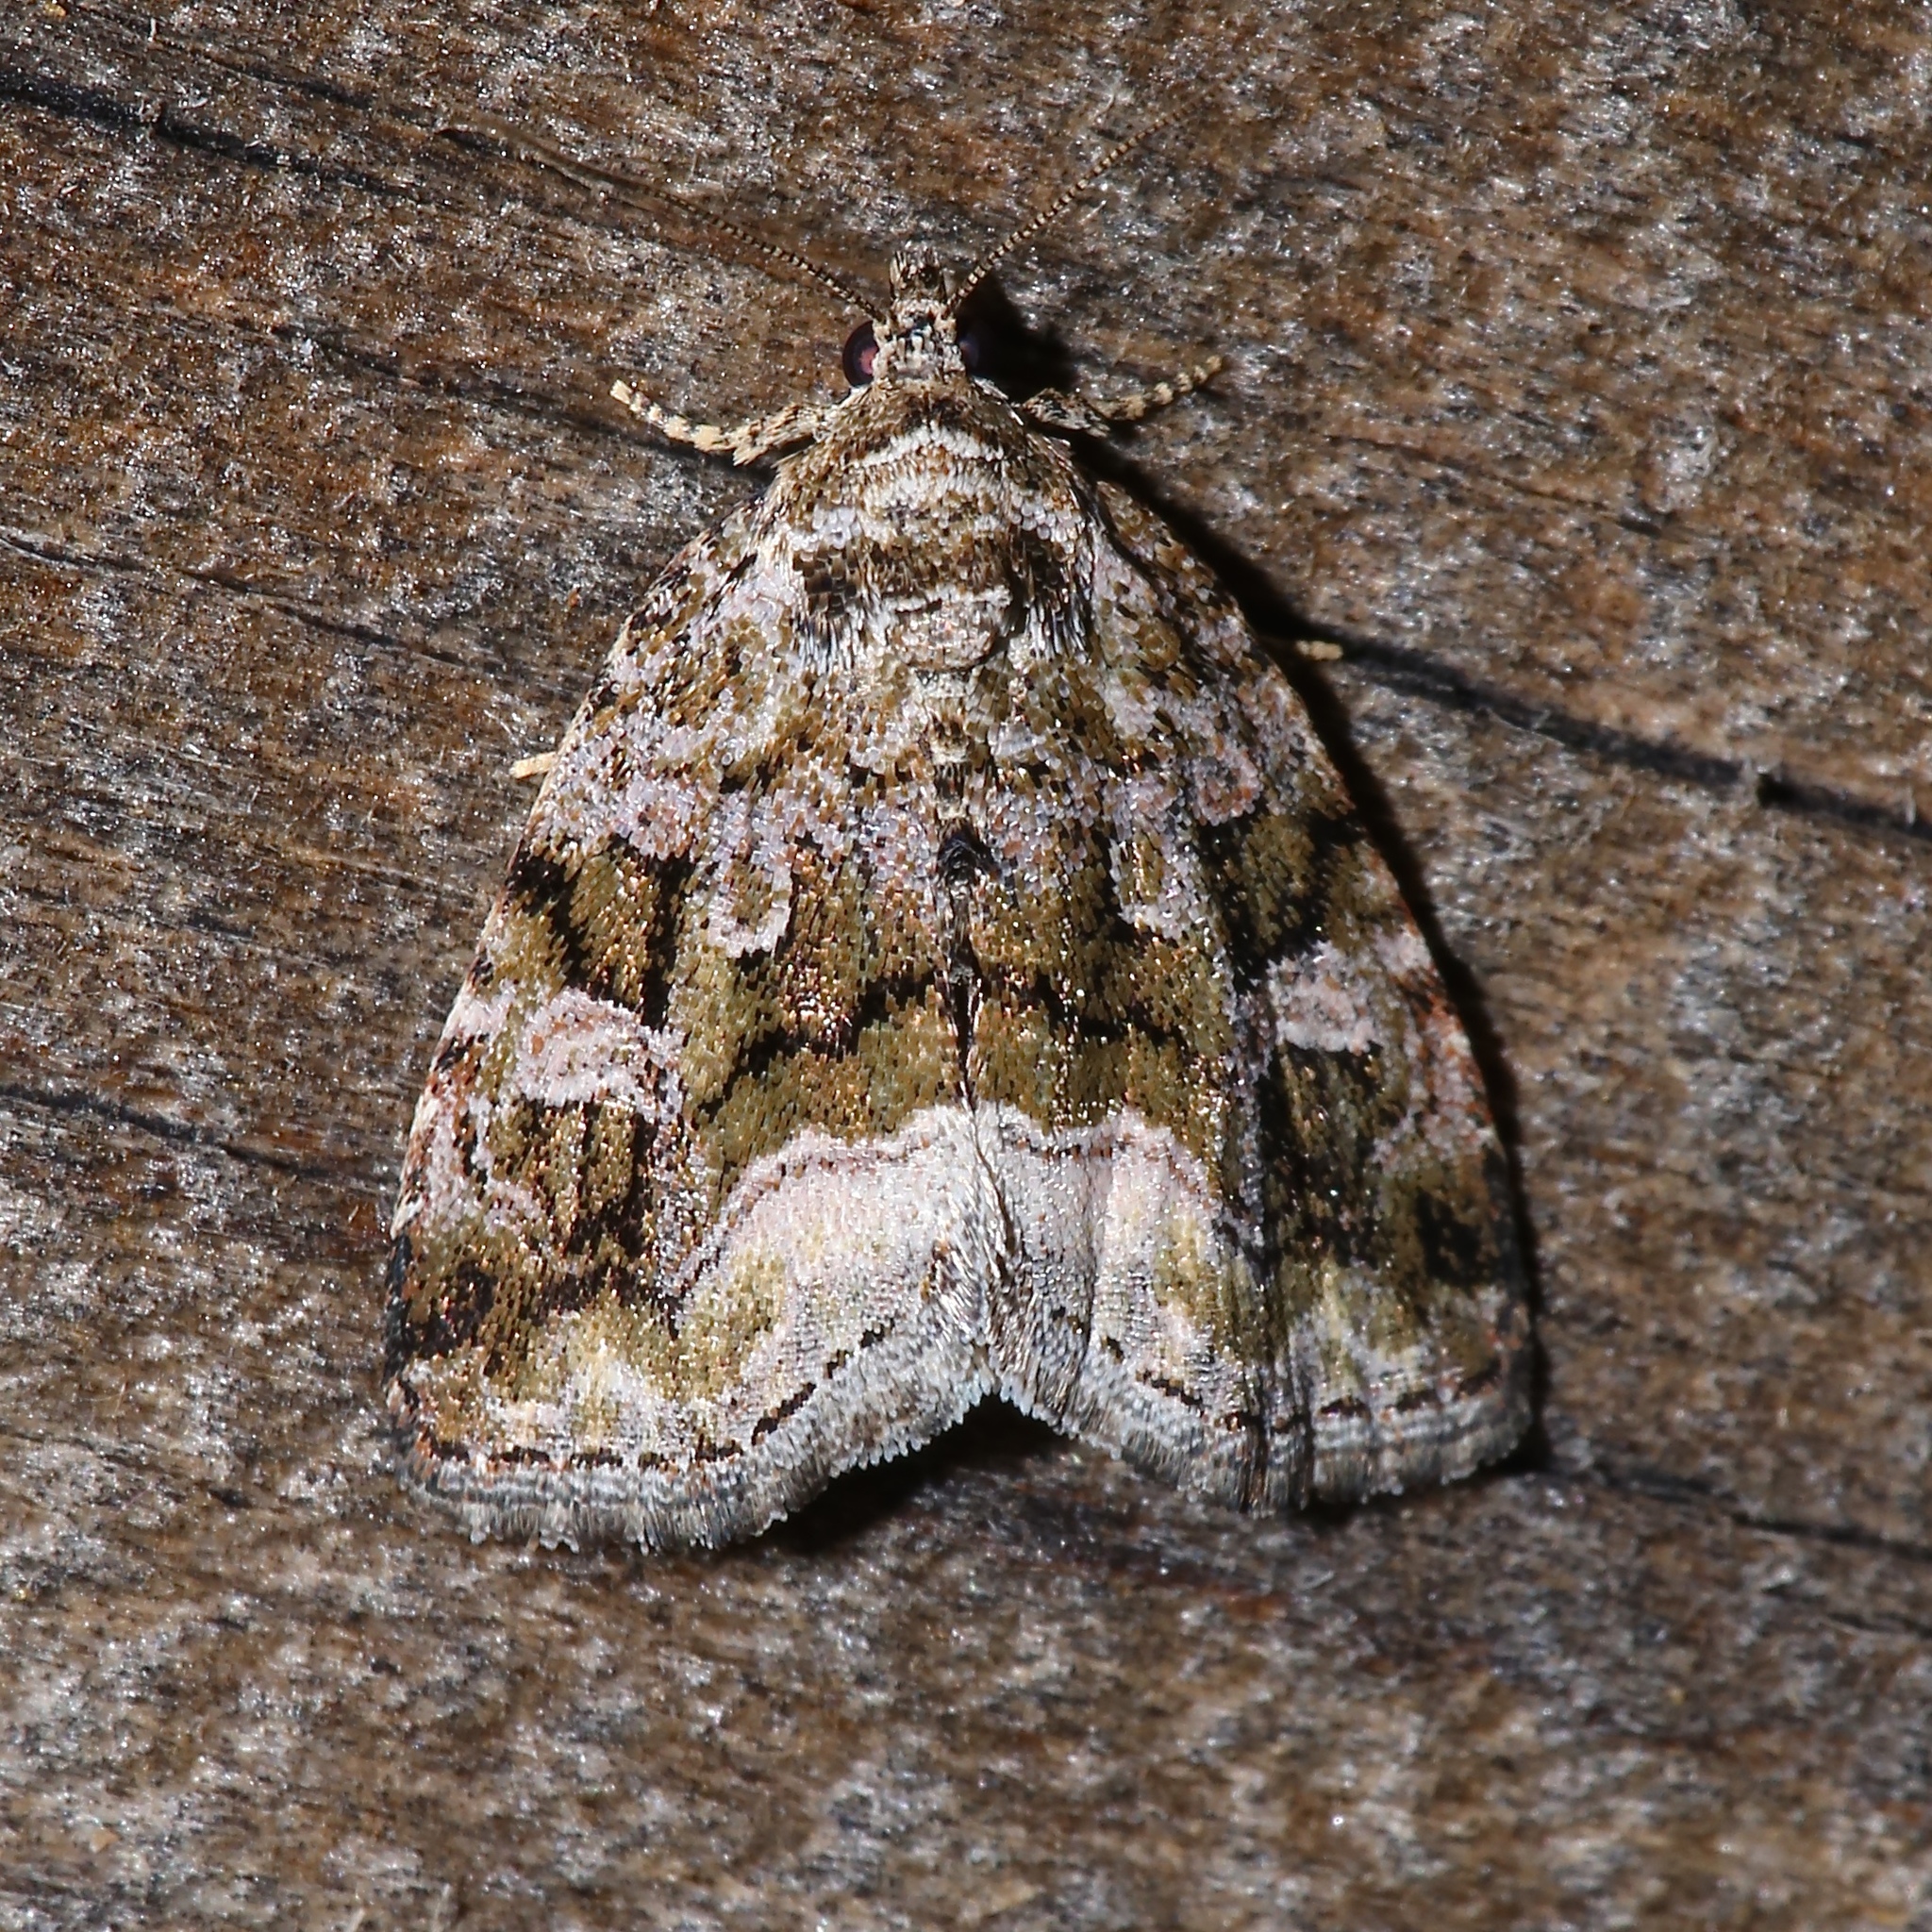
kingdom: Animalia
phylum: Arthropoda
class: Insecta
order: Lepidoptera
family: Noctuidae
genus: Protodeltote
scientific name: Protodeltote muscosula
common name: Large mossy glyph
